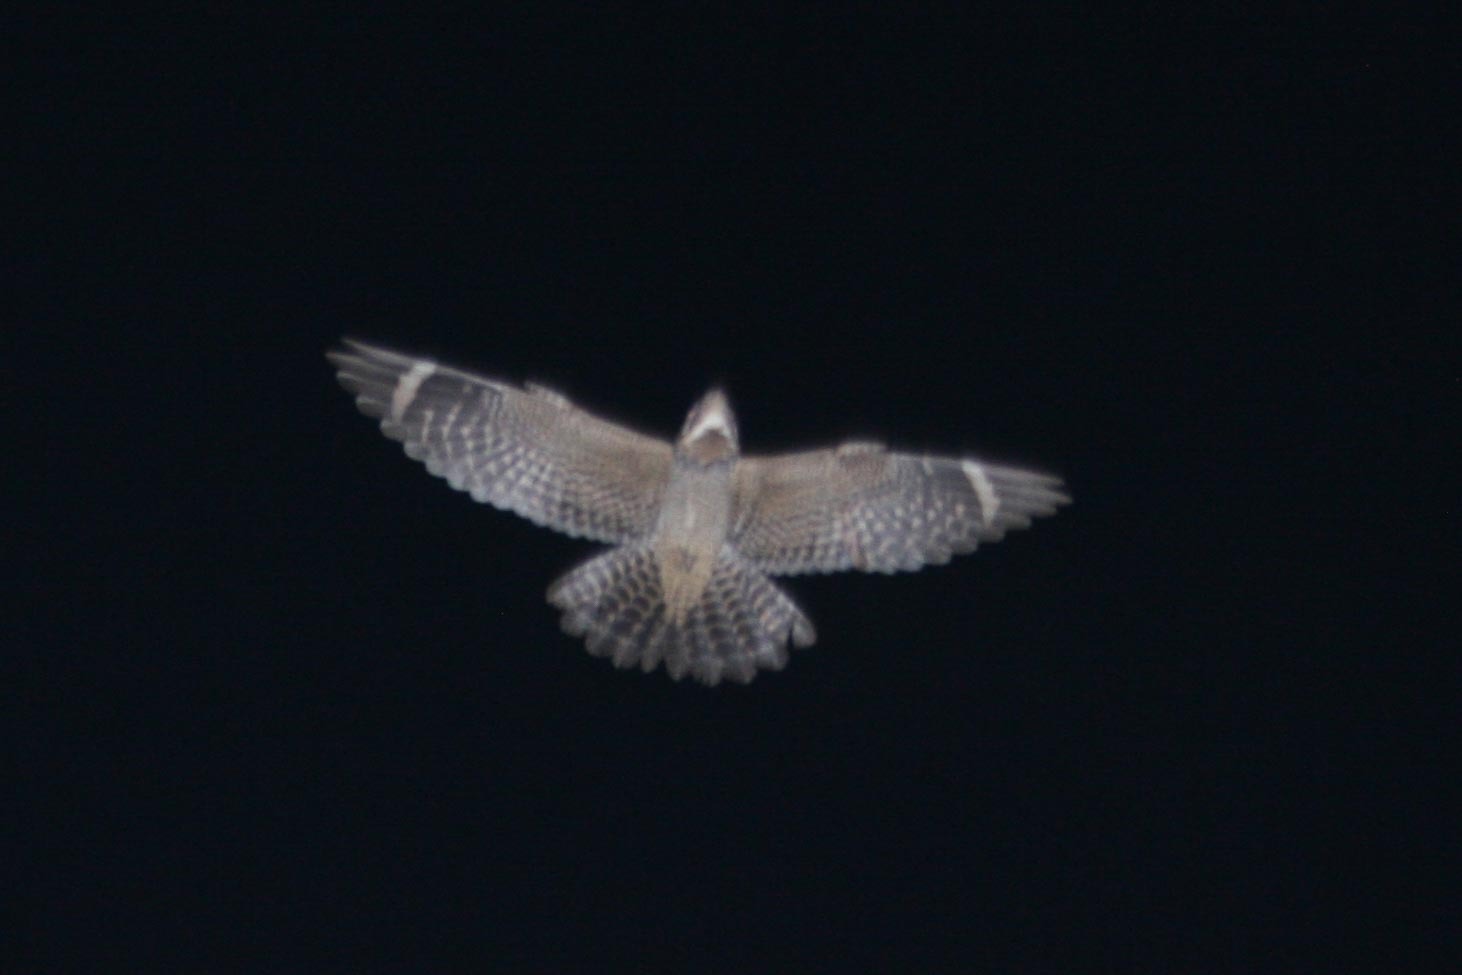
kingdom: Animalia
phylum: Chordata
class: Aves
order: Caprimulgiformes
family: Caprimulgidae
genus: Chordeiles
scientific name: Chordeiles acutipennis
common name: Lesser nighthawk
